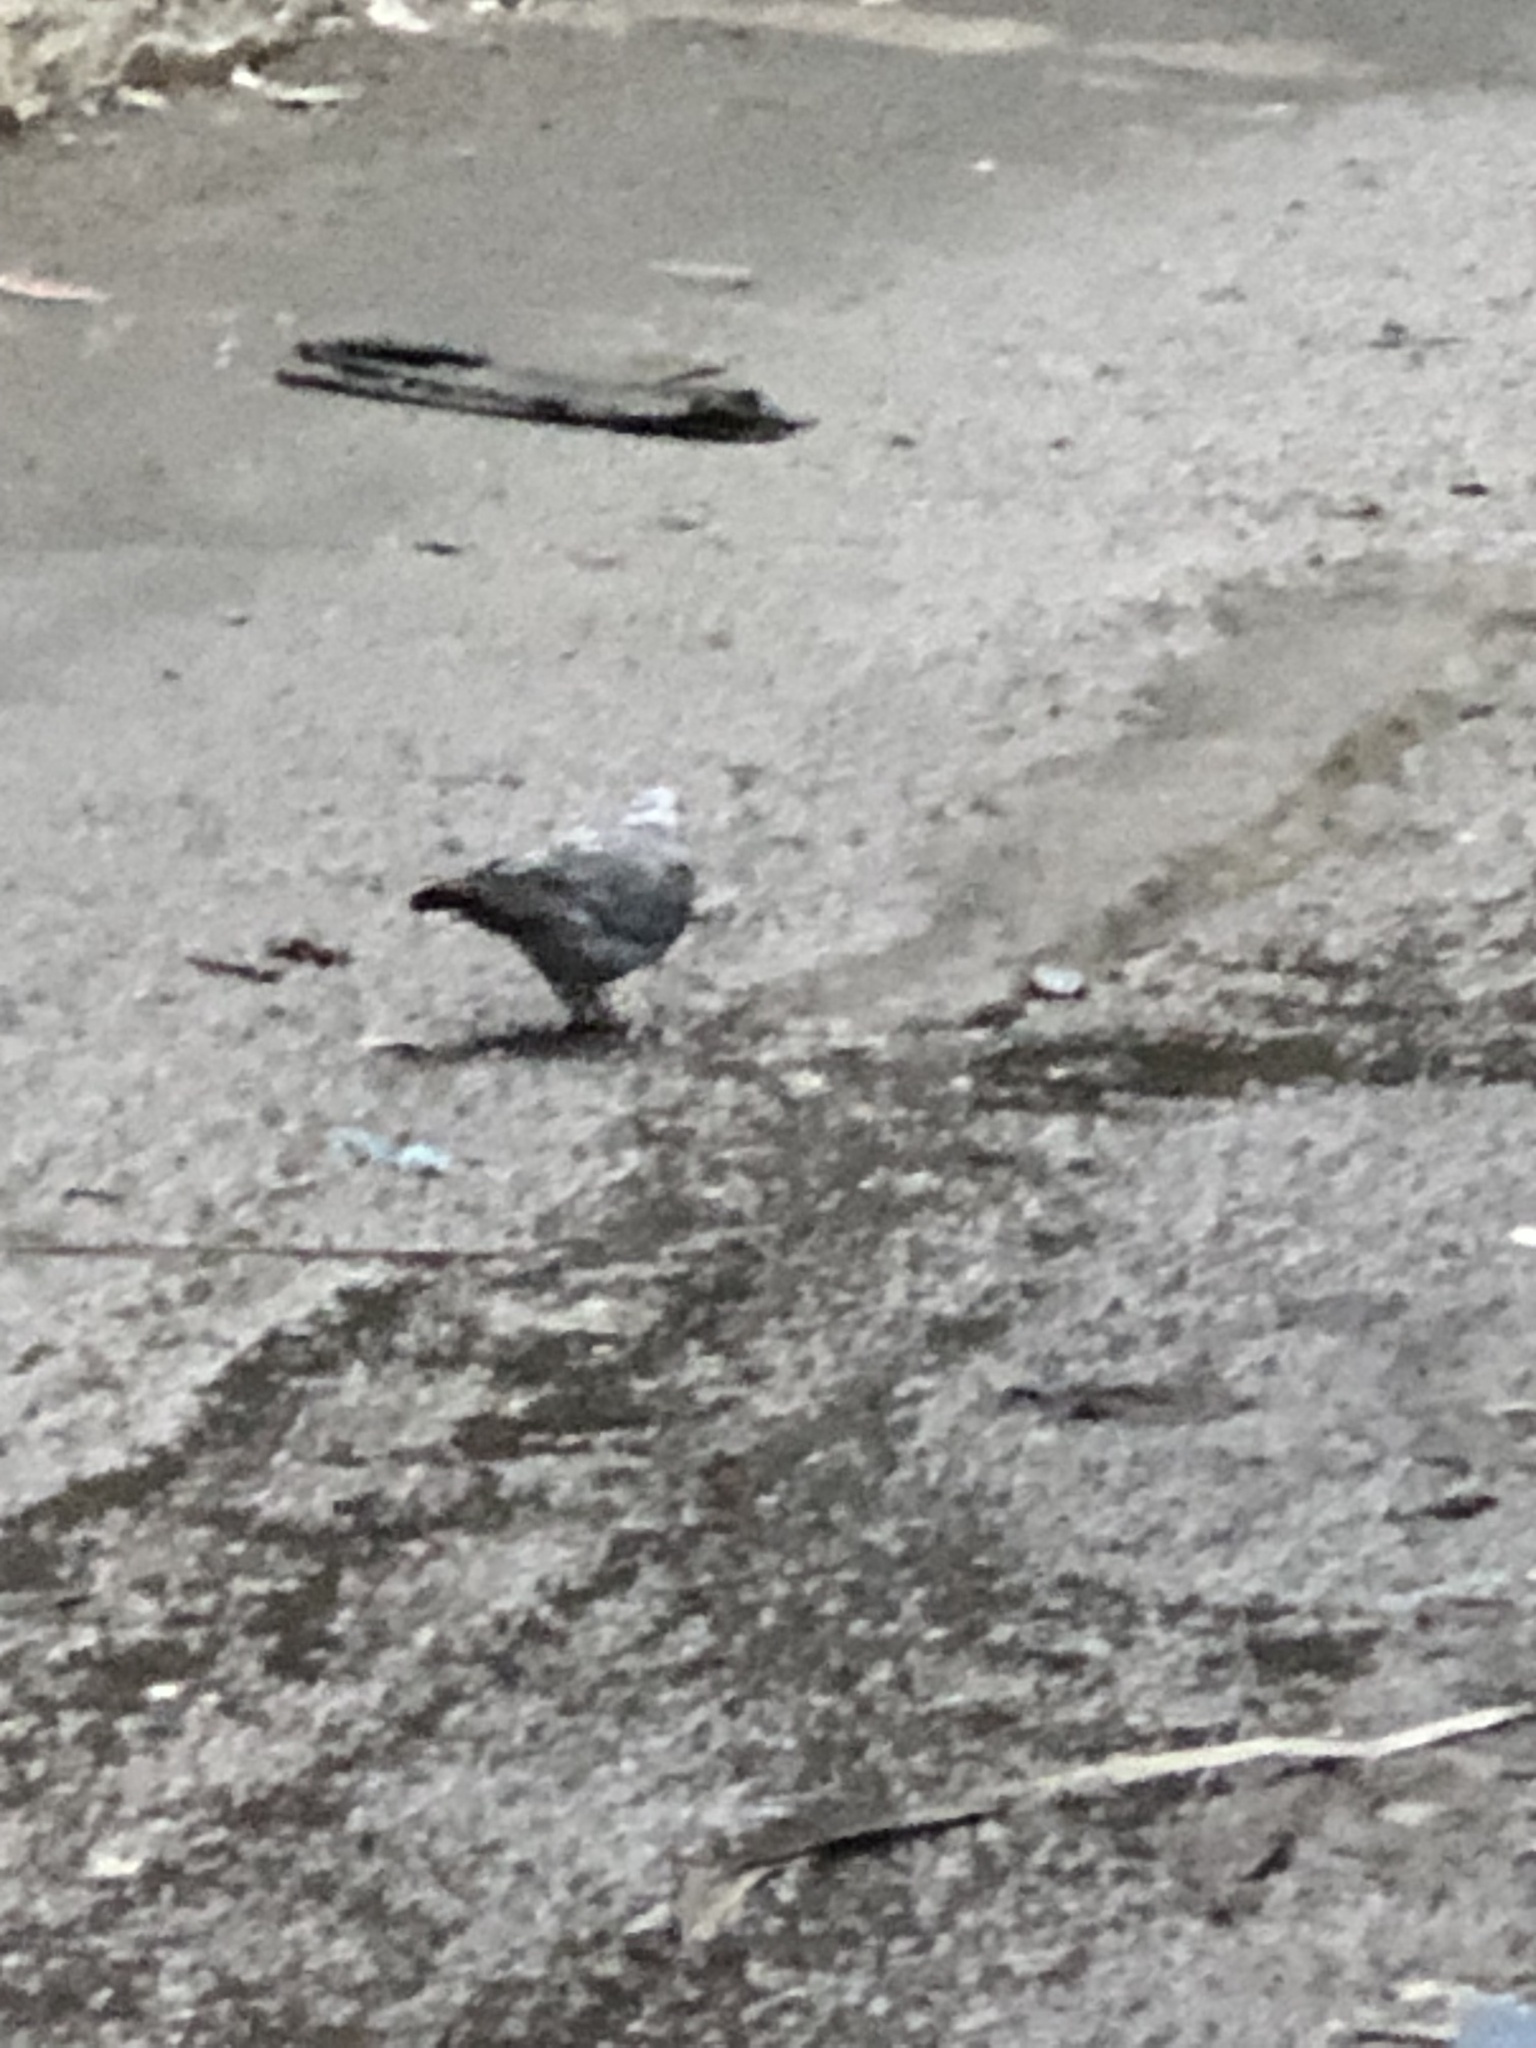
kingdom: Animalia
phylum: Chordata
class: Aves
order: Columbiformes
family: Columbidae
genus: Columba
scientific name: Columba livia
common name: Rock pigeon
